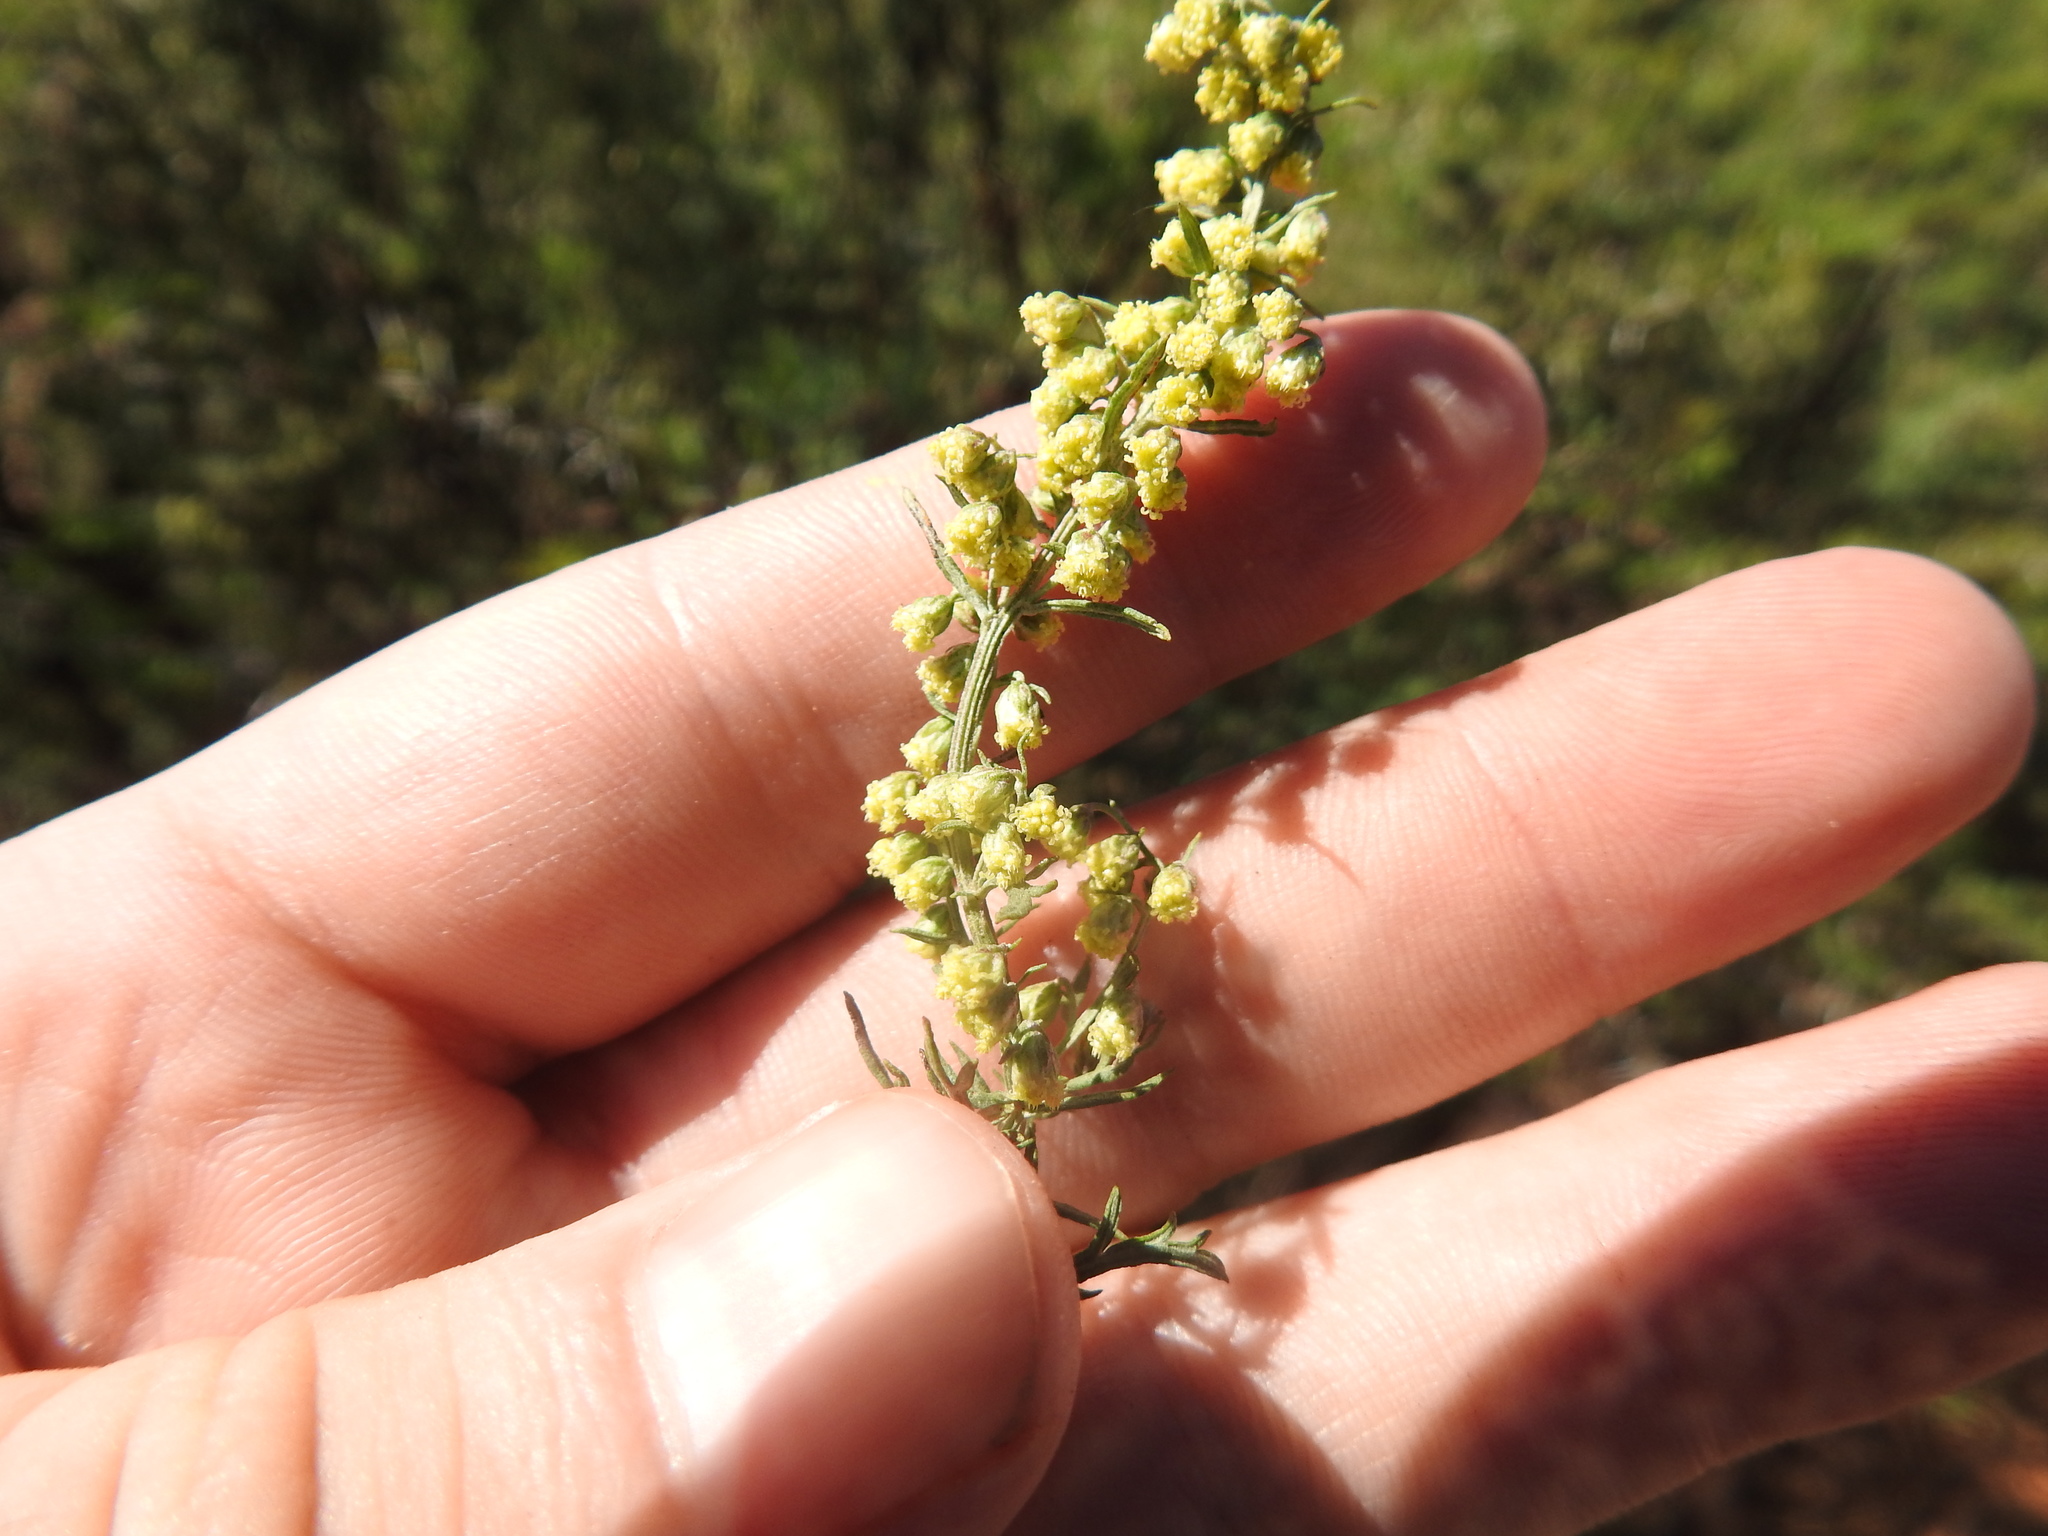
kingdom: Plantae
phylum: Tracheophyta
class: Magnoliopsida
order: Asterales
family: Asteraceae
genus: Artemisia
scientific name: Artemisia afra
